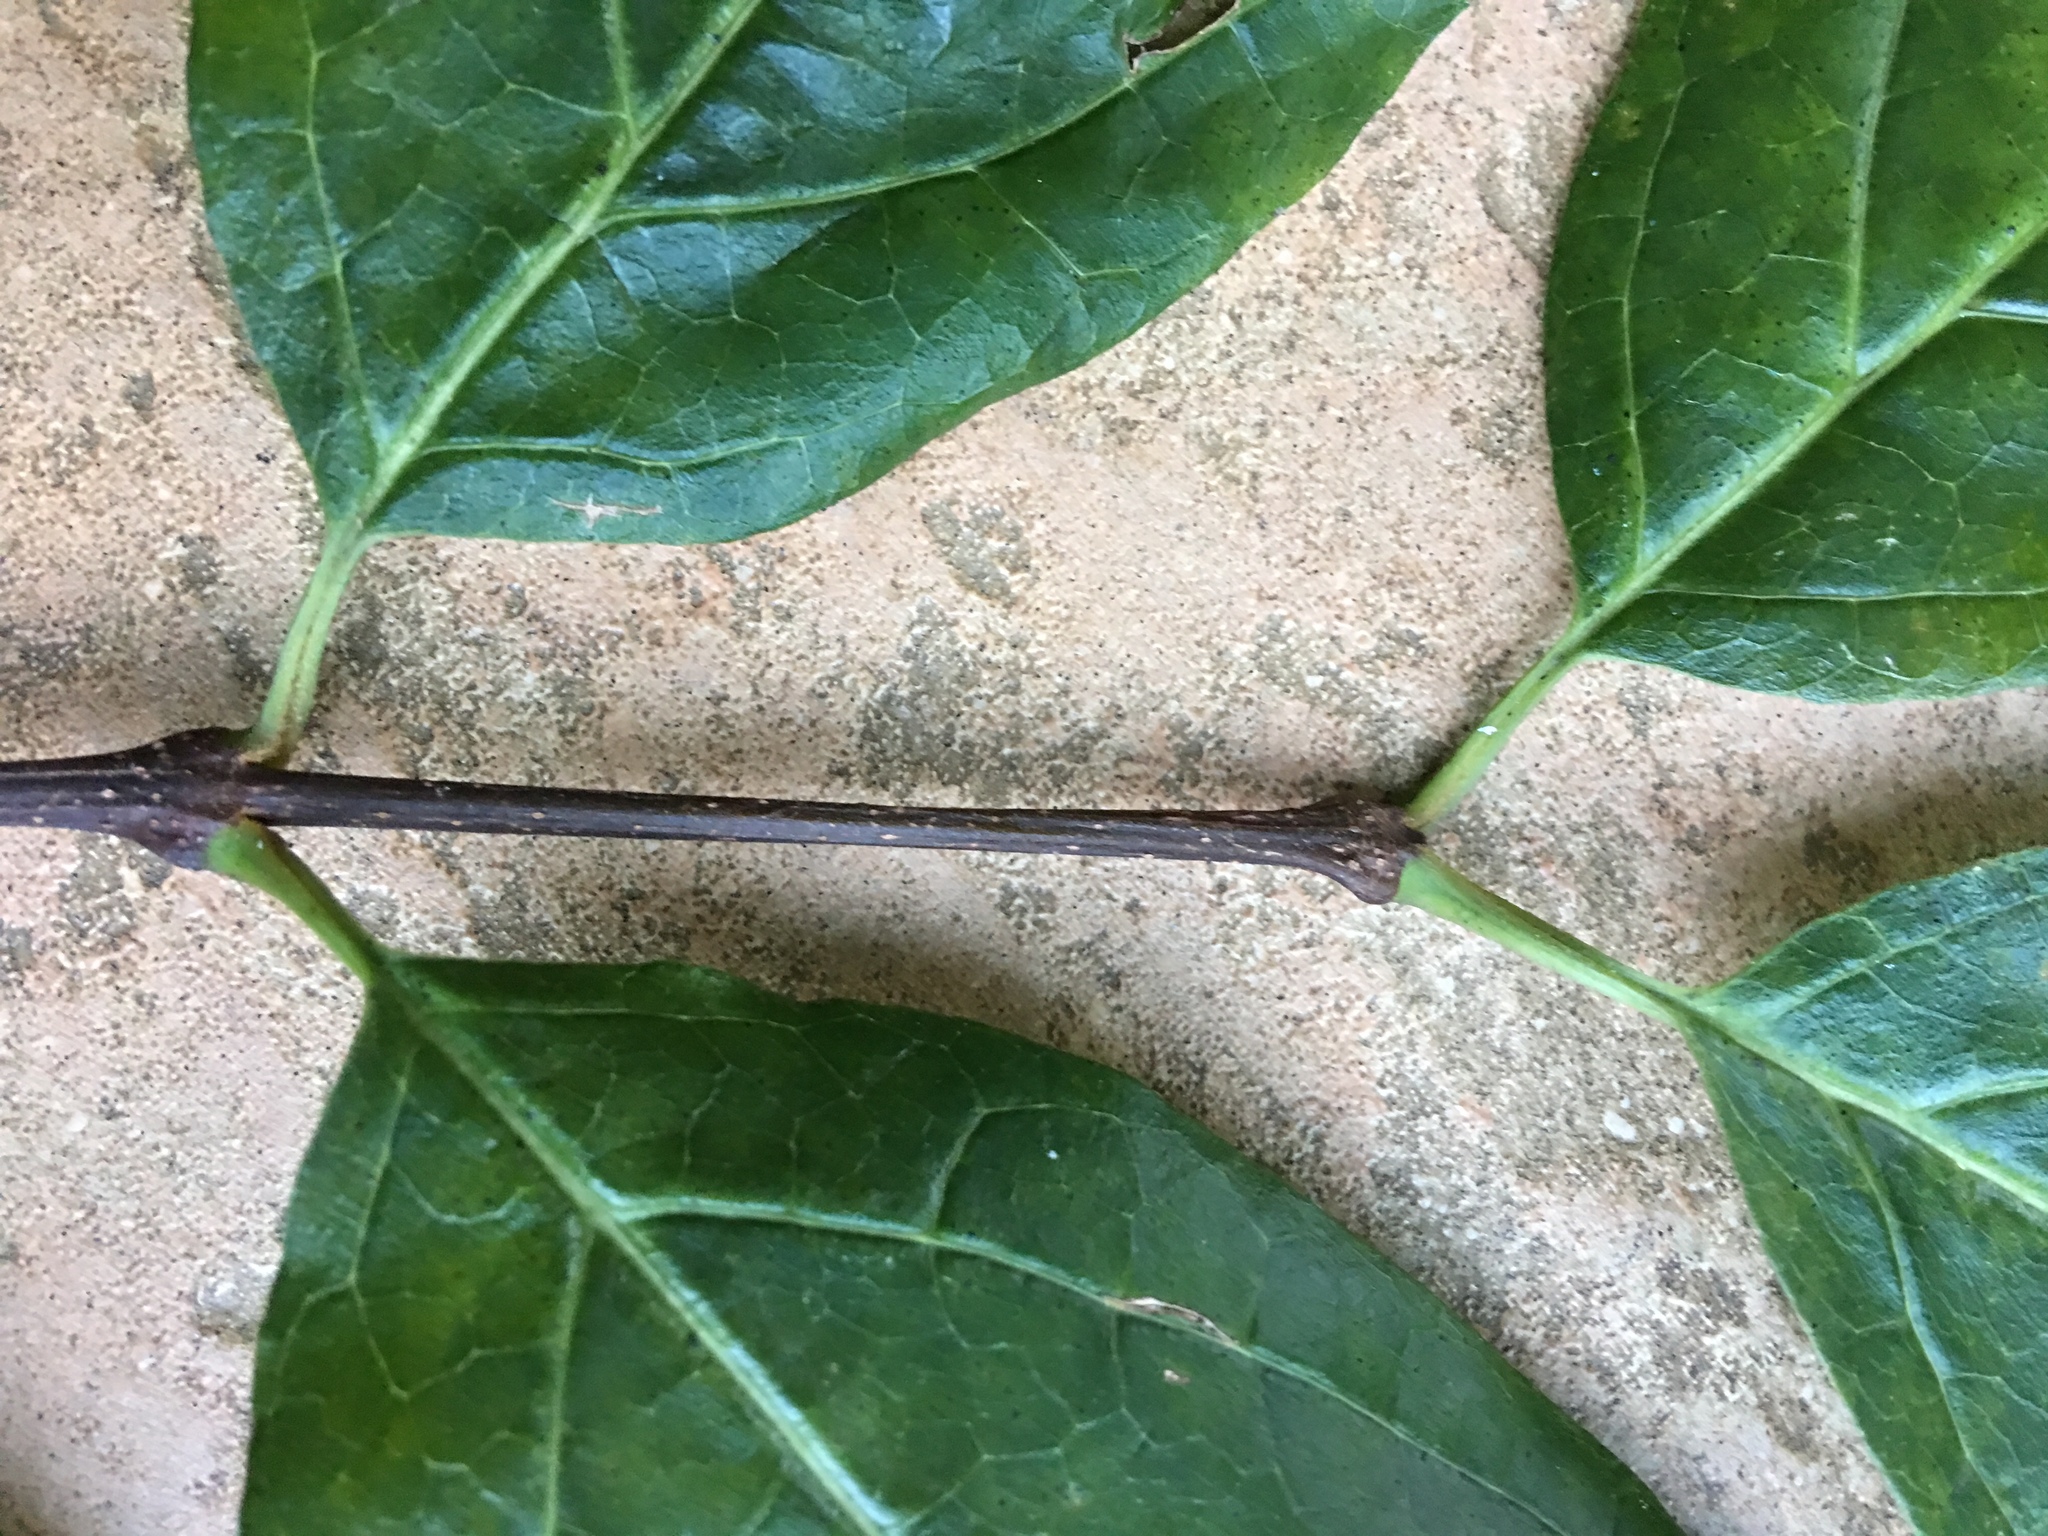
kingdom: Plantae
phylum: Tracheophyta
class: Magnoliopsida
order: Lamiales
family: Oleaceae
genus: Chionanthus
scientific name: Chionanthus virginicus
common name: American fringetree
